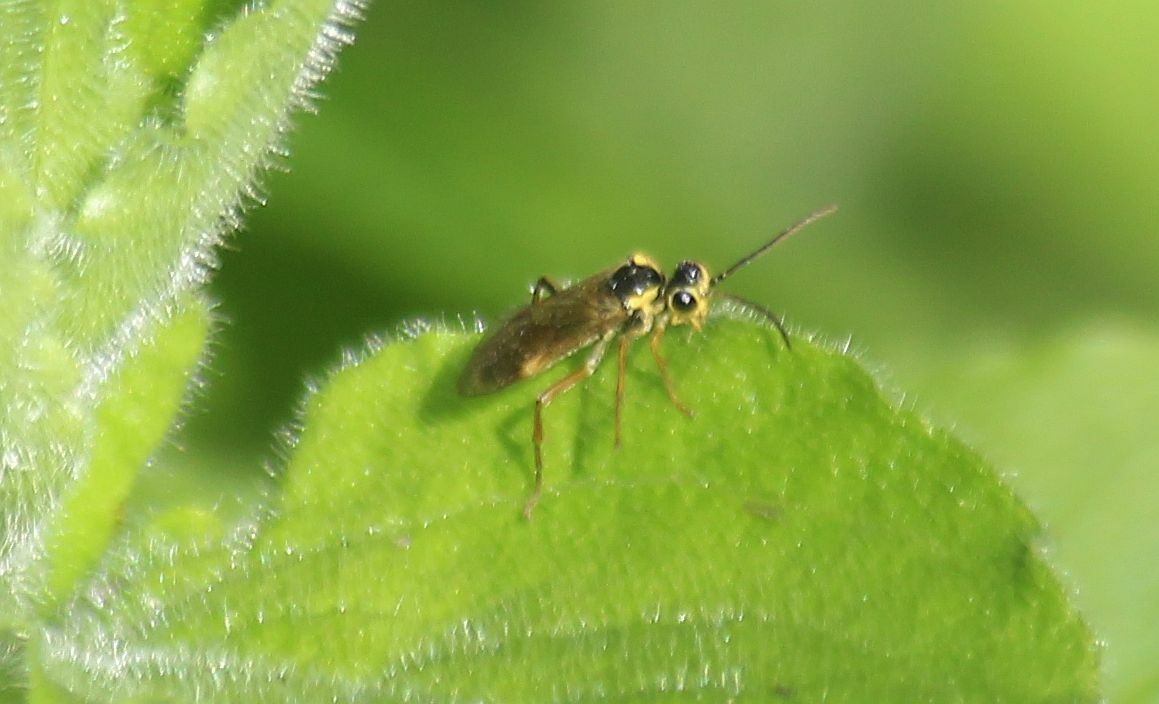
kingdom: Animalia
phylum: Arthropoda
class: Insecta
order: Hymenoptera
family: Tenthredinidae
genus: Aglaostigma
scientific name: Aglaostigma fulvipes
